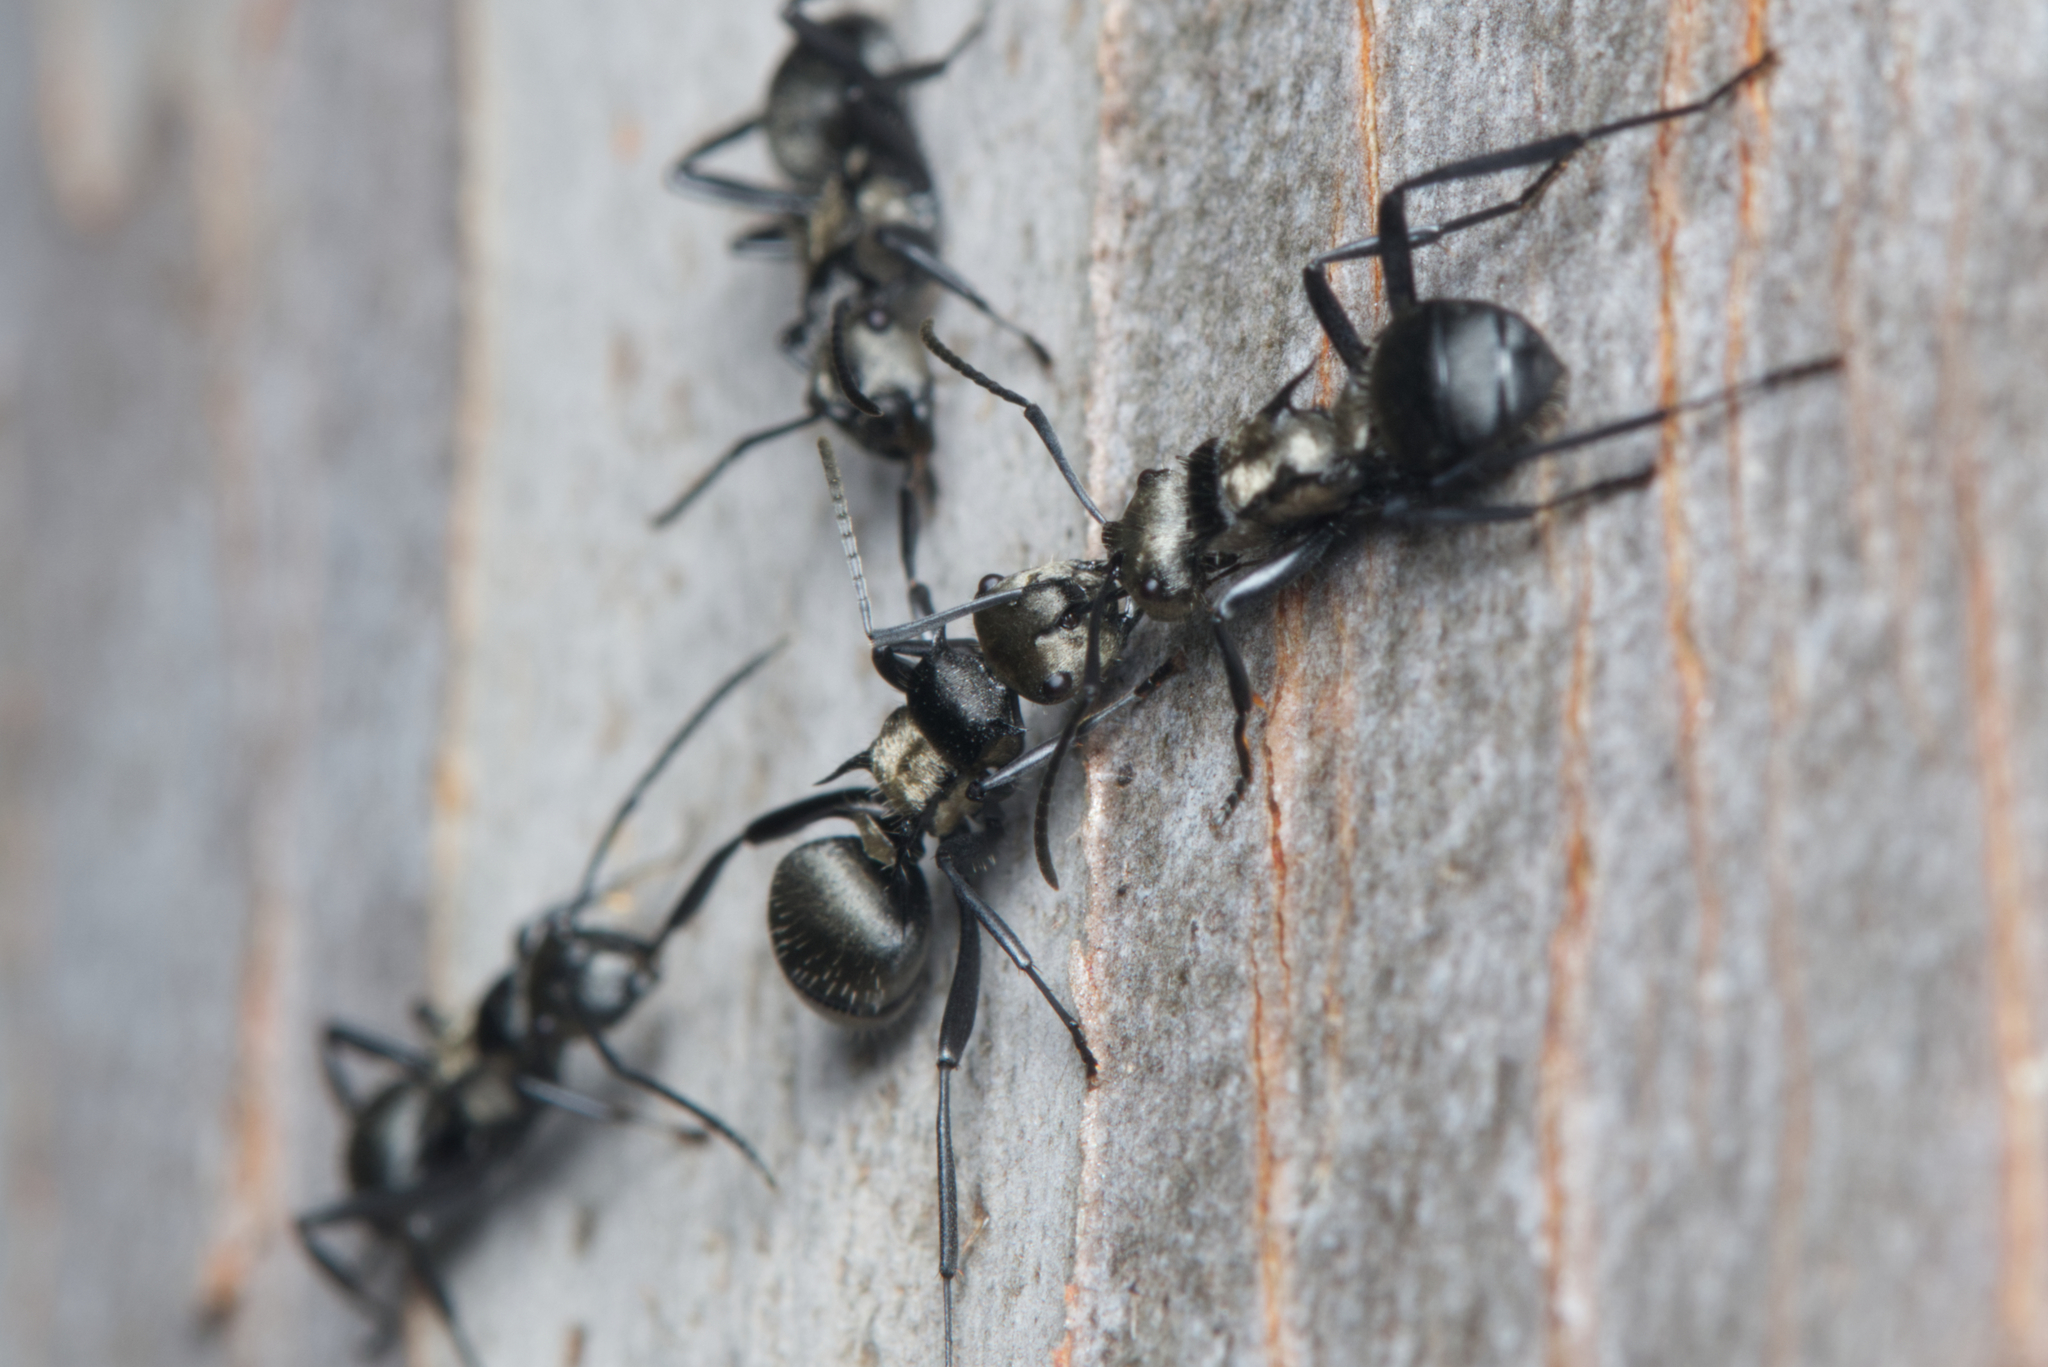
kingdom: Animalia
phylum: Arthropoda
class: Insecta
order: Hymenoptera
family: Formicidae
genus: Polyrhachis
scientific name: Polyrhachis daemeli
